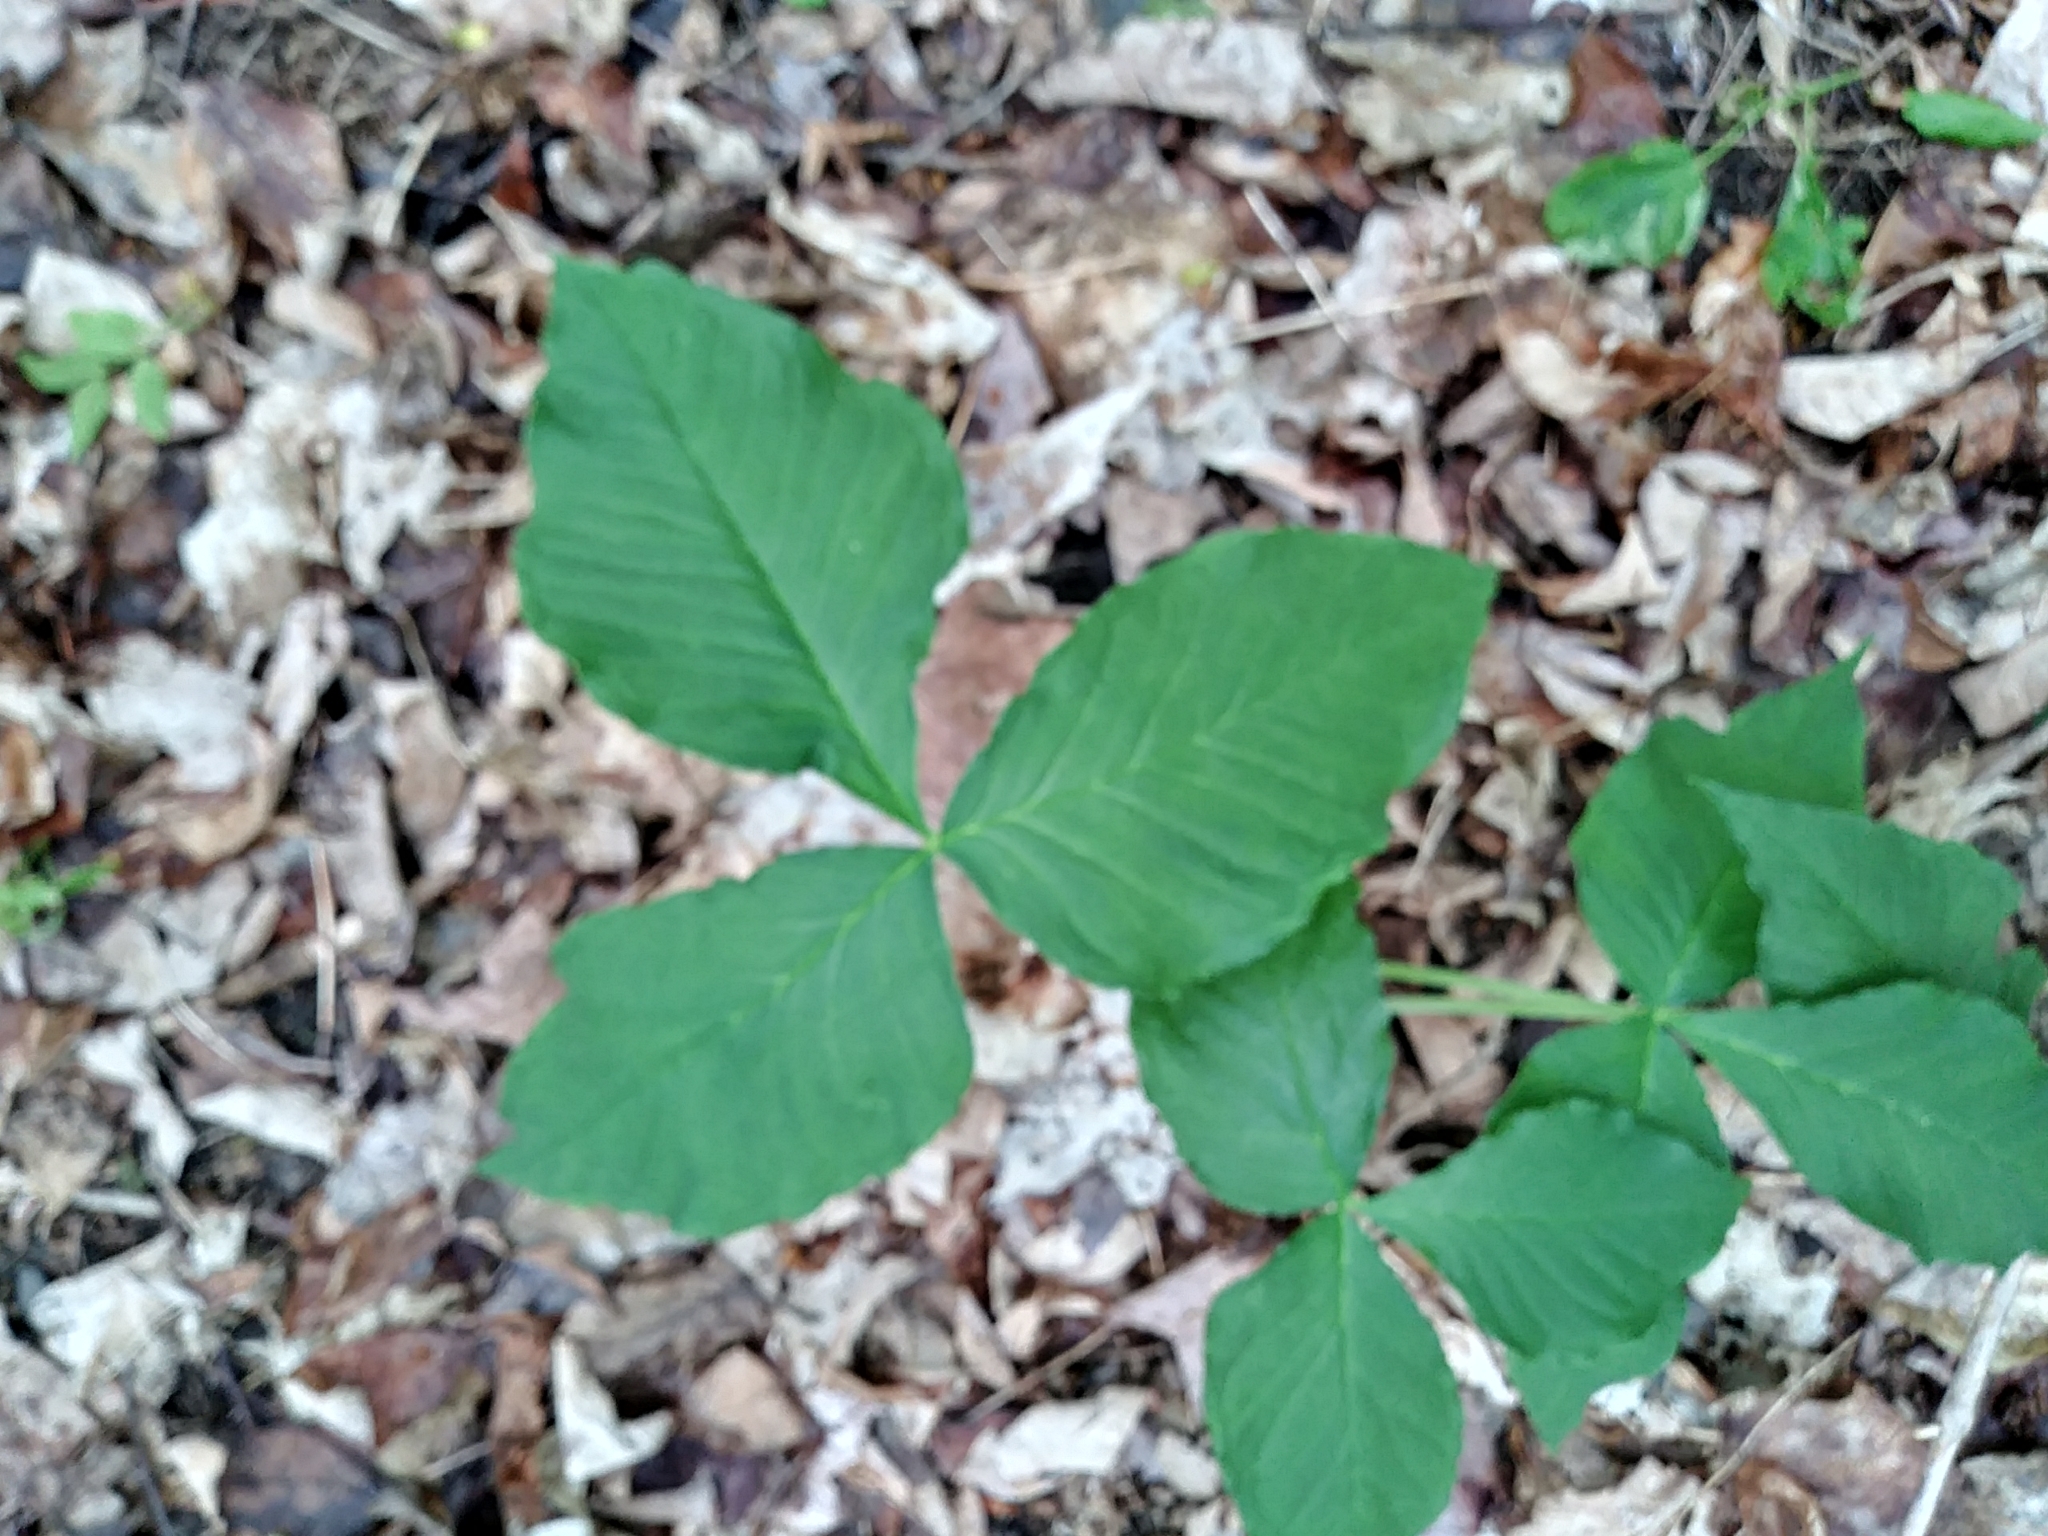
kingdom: Plantae
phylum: Tracheophyta
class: Liliopsida
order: Alismatales
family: Araceae
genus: Arisaema
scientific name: Arisaema triphyllum
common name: Jack-in-the-pulpit
